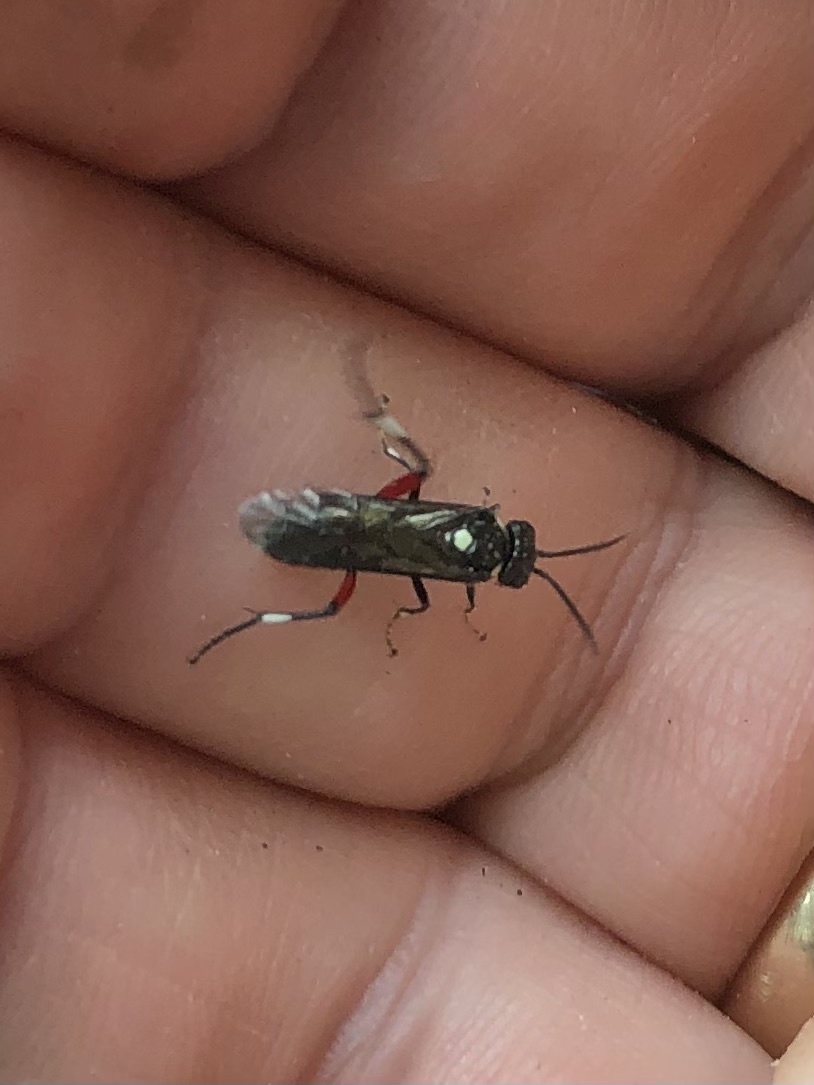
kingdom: Animalia
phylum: Arthropoda
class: Insecta
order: Hymenoptera
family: Tenthredinidae
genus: Macrophya
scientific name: Macrophya punctumalbum
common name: Sawfly
